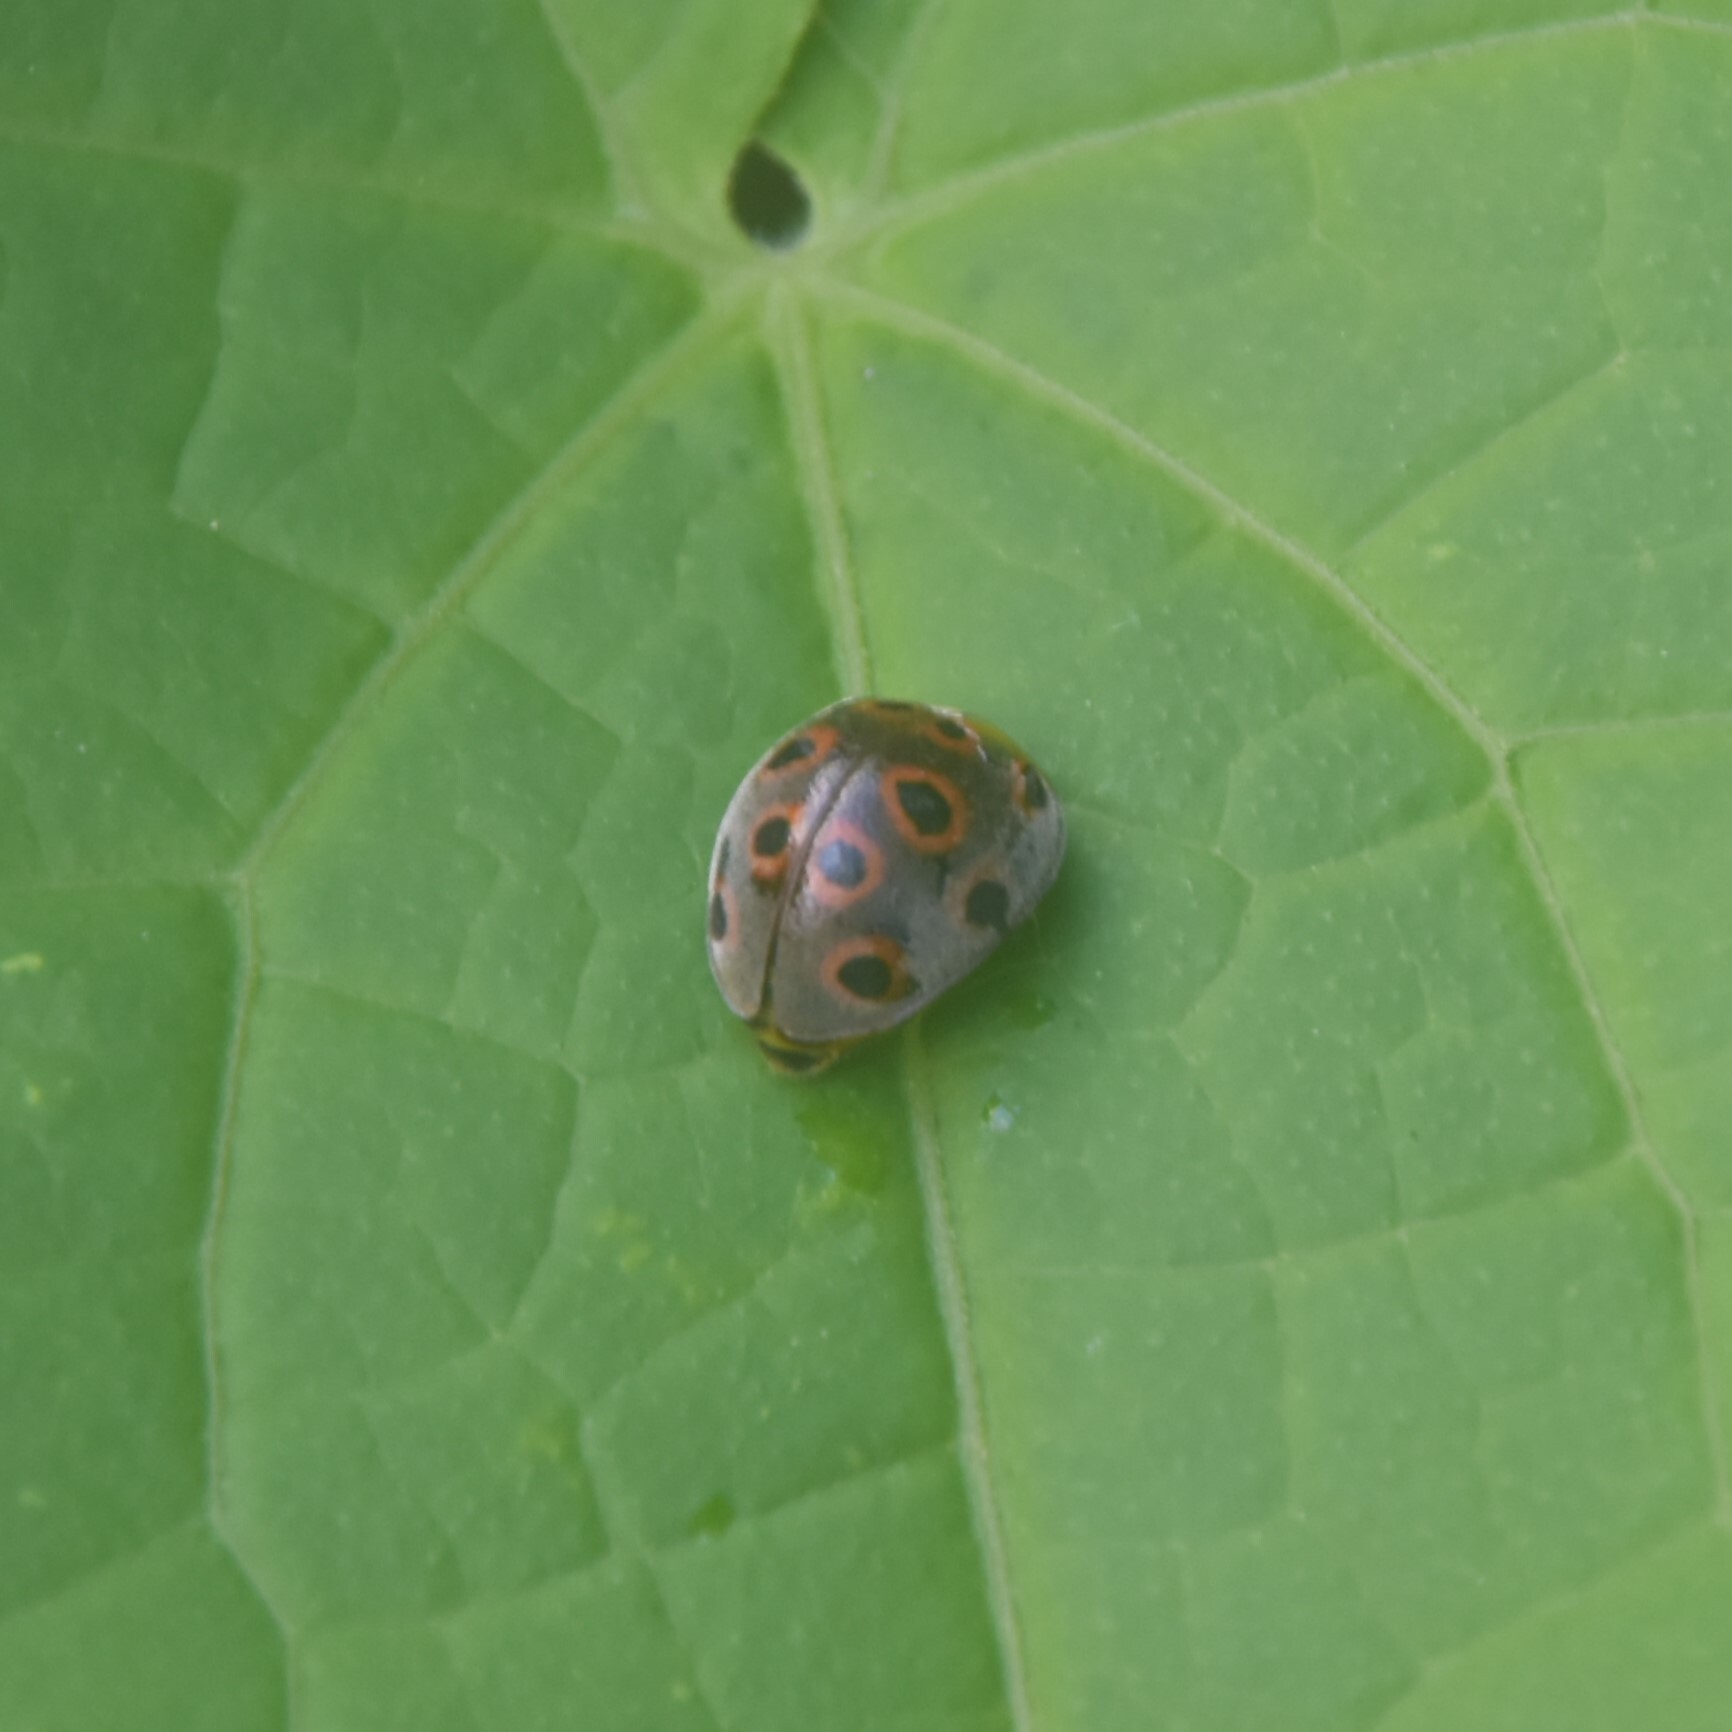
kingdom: Animalia
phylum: Arthropoda
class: Insecta
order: Coleoptera
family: Coccinellidae
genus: Henosepilachna
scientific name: Henosepilachna
